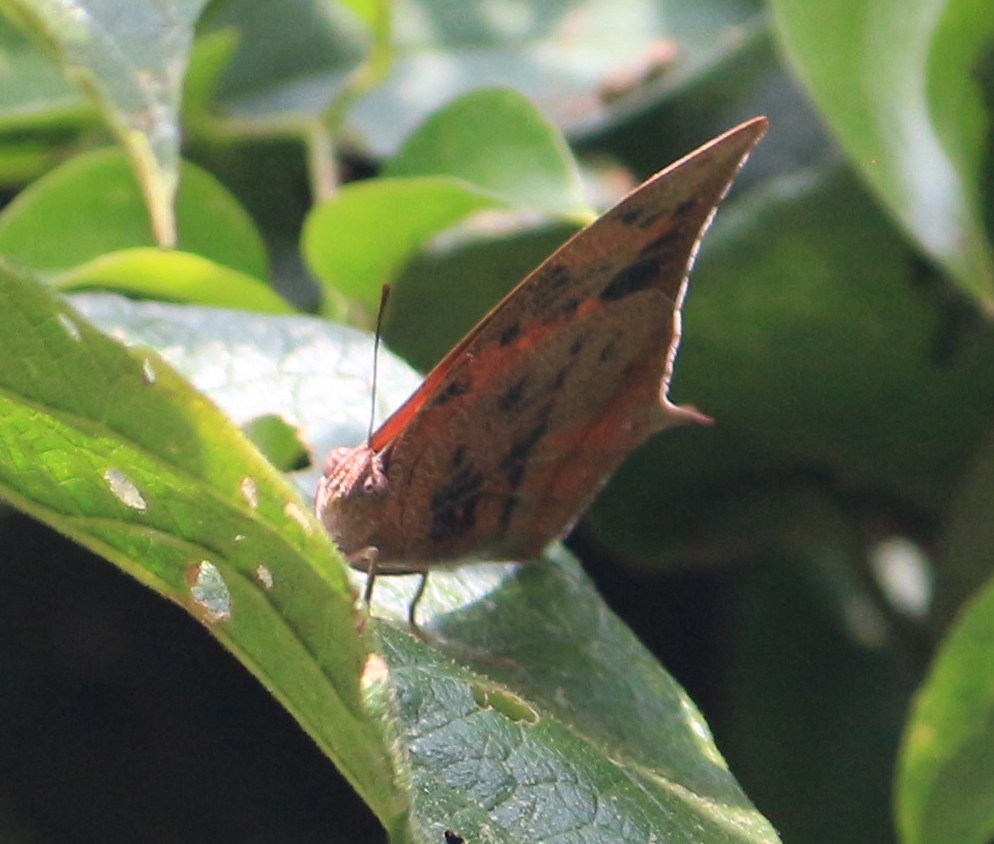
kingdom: Animalia
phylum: Arthropoda
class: Insecta
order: Lepidoptera
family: Nymphalidae
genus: Fountainea
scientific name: Fountainea
